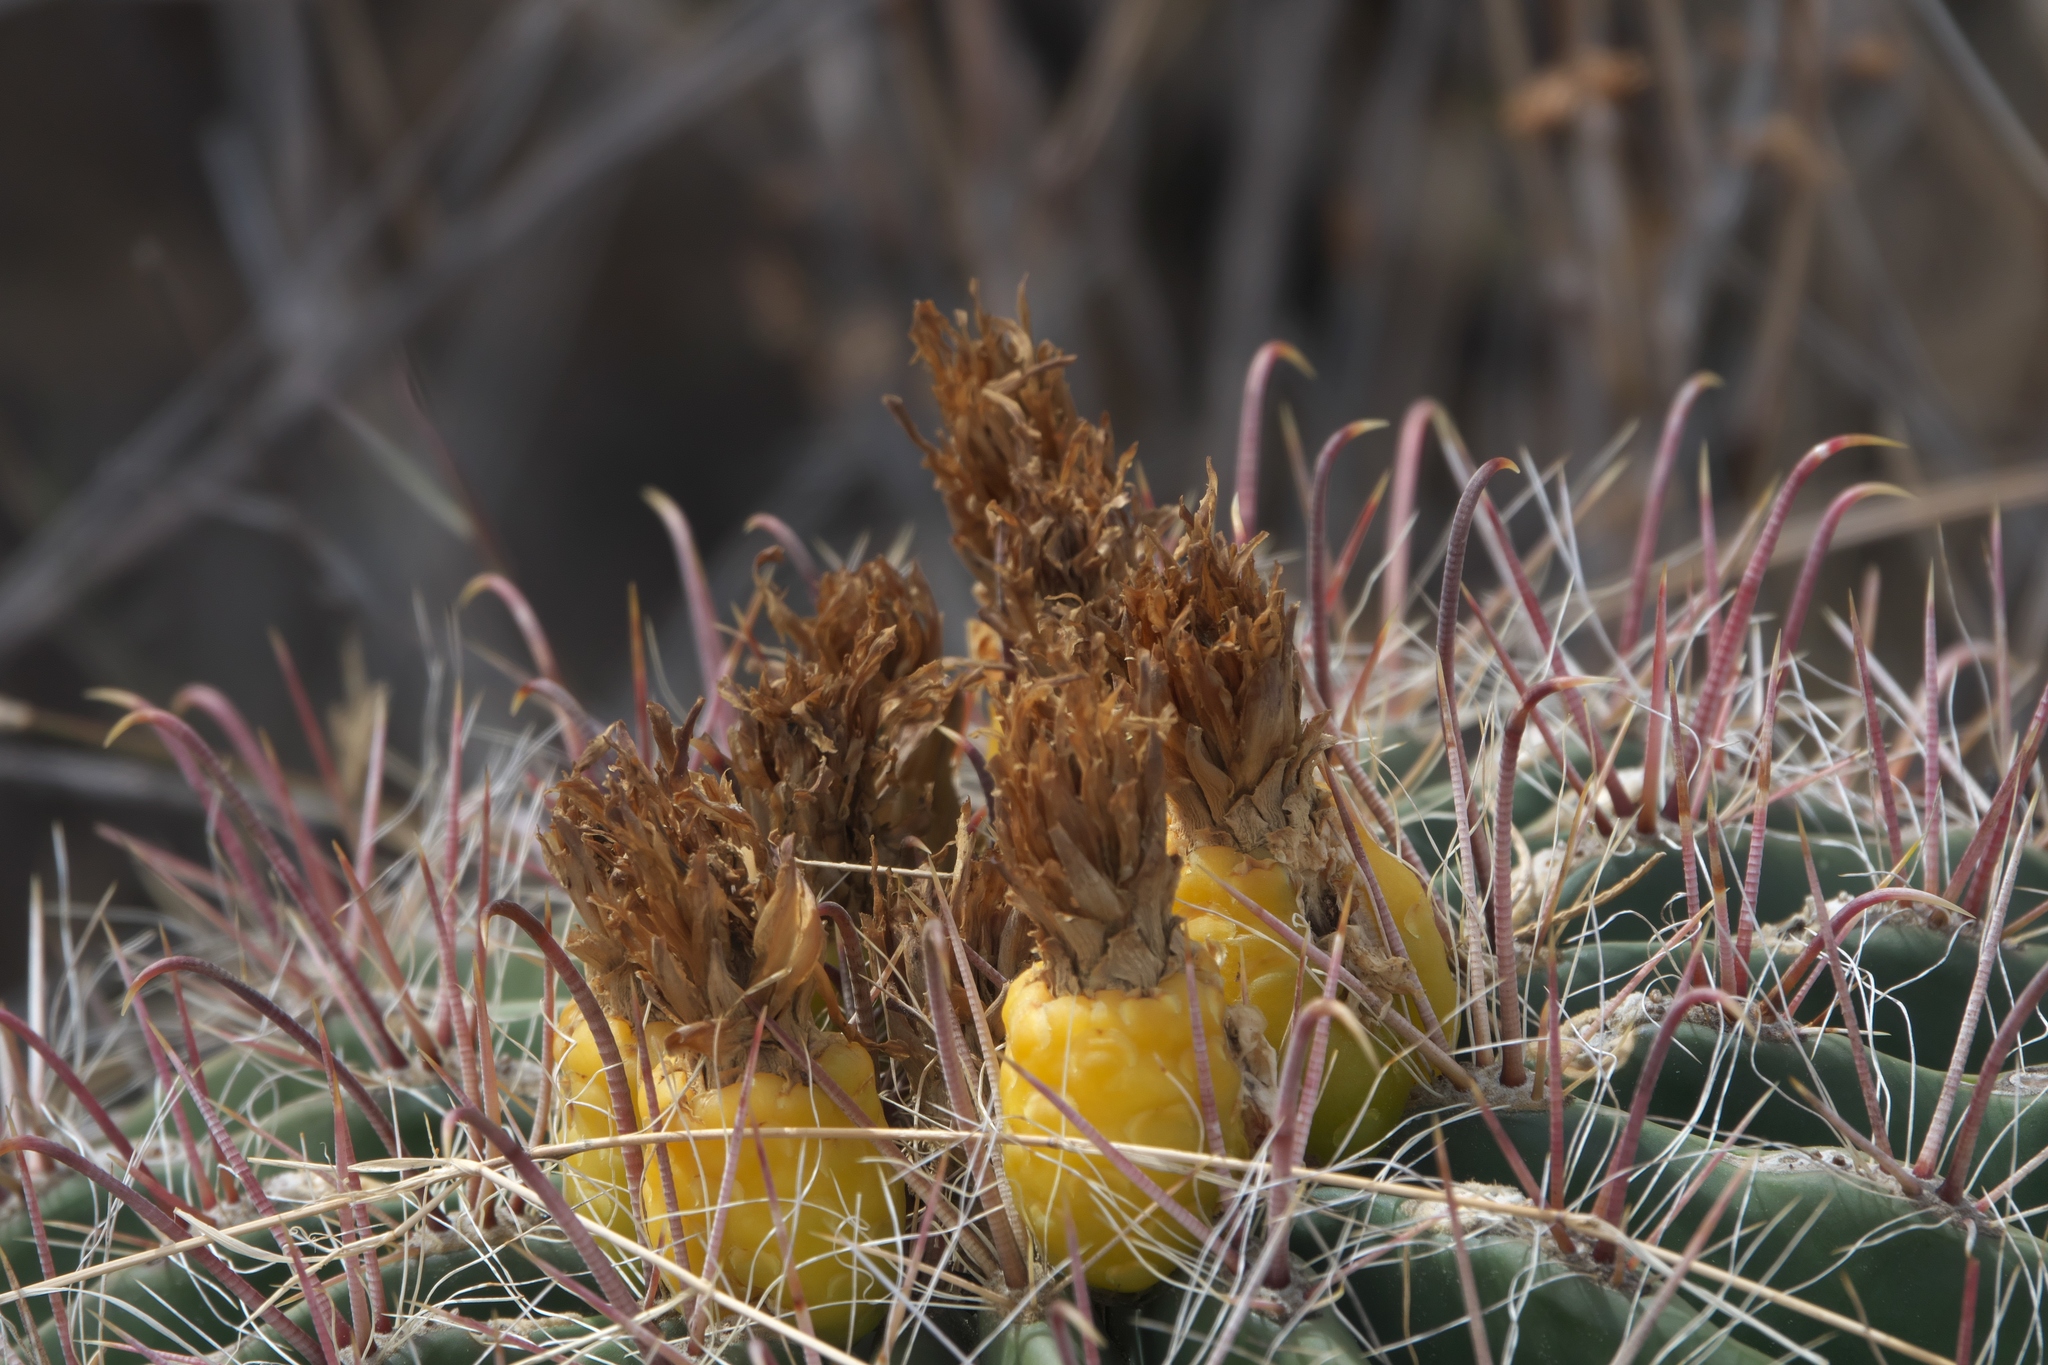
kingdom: Plantae
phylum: Tracheophyta
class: Magnoliopsida
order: Caryophyllales
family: Cactaceae
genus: Ferocactus
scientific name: Ferocactus wislizeni
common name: Candy barrel cactus
